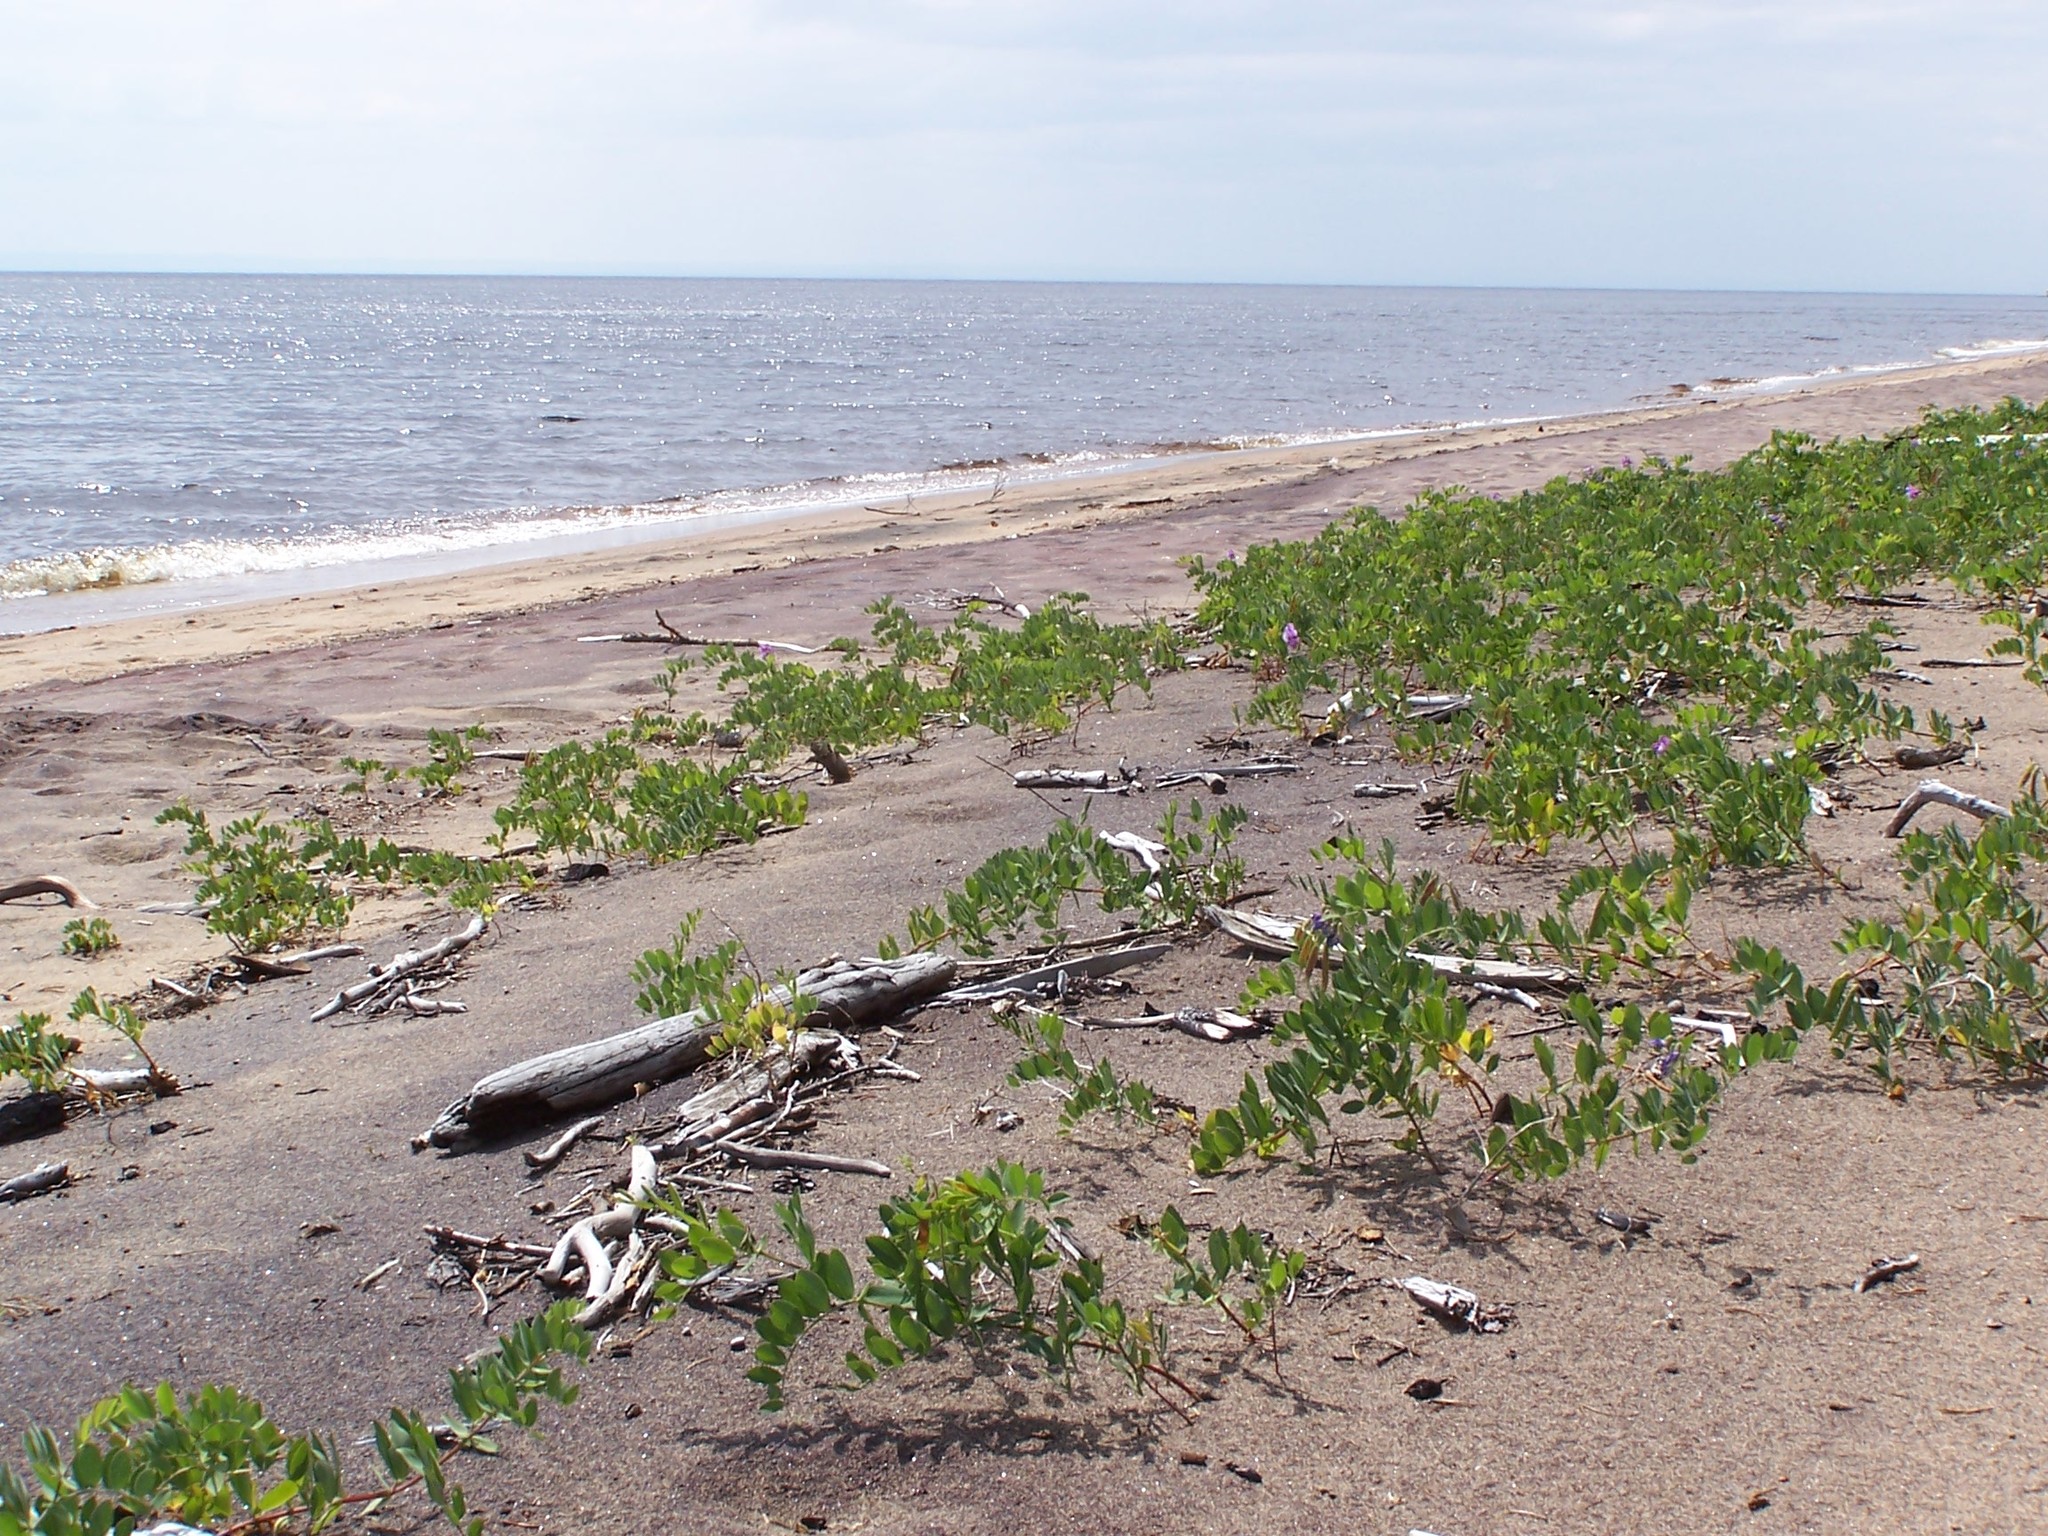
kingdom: Plantae
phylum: Tracheophyta
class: Magnoliopsida
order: Fabales
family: Fabaceae
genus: Lathyrus
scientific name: Lathyrus japonicus
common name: Sea pea
